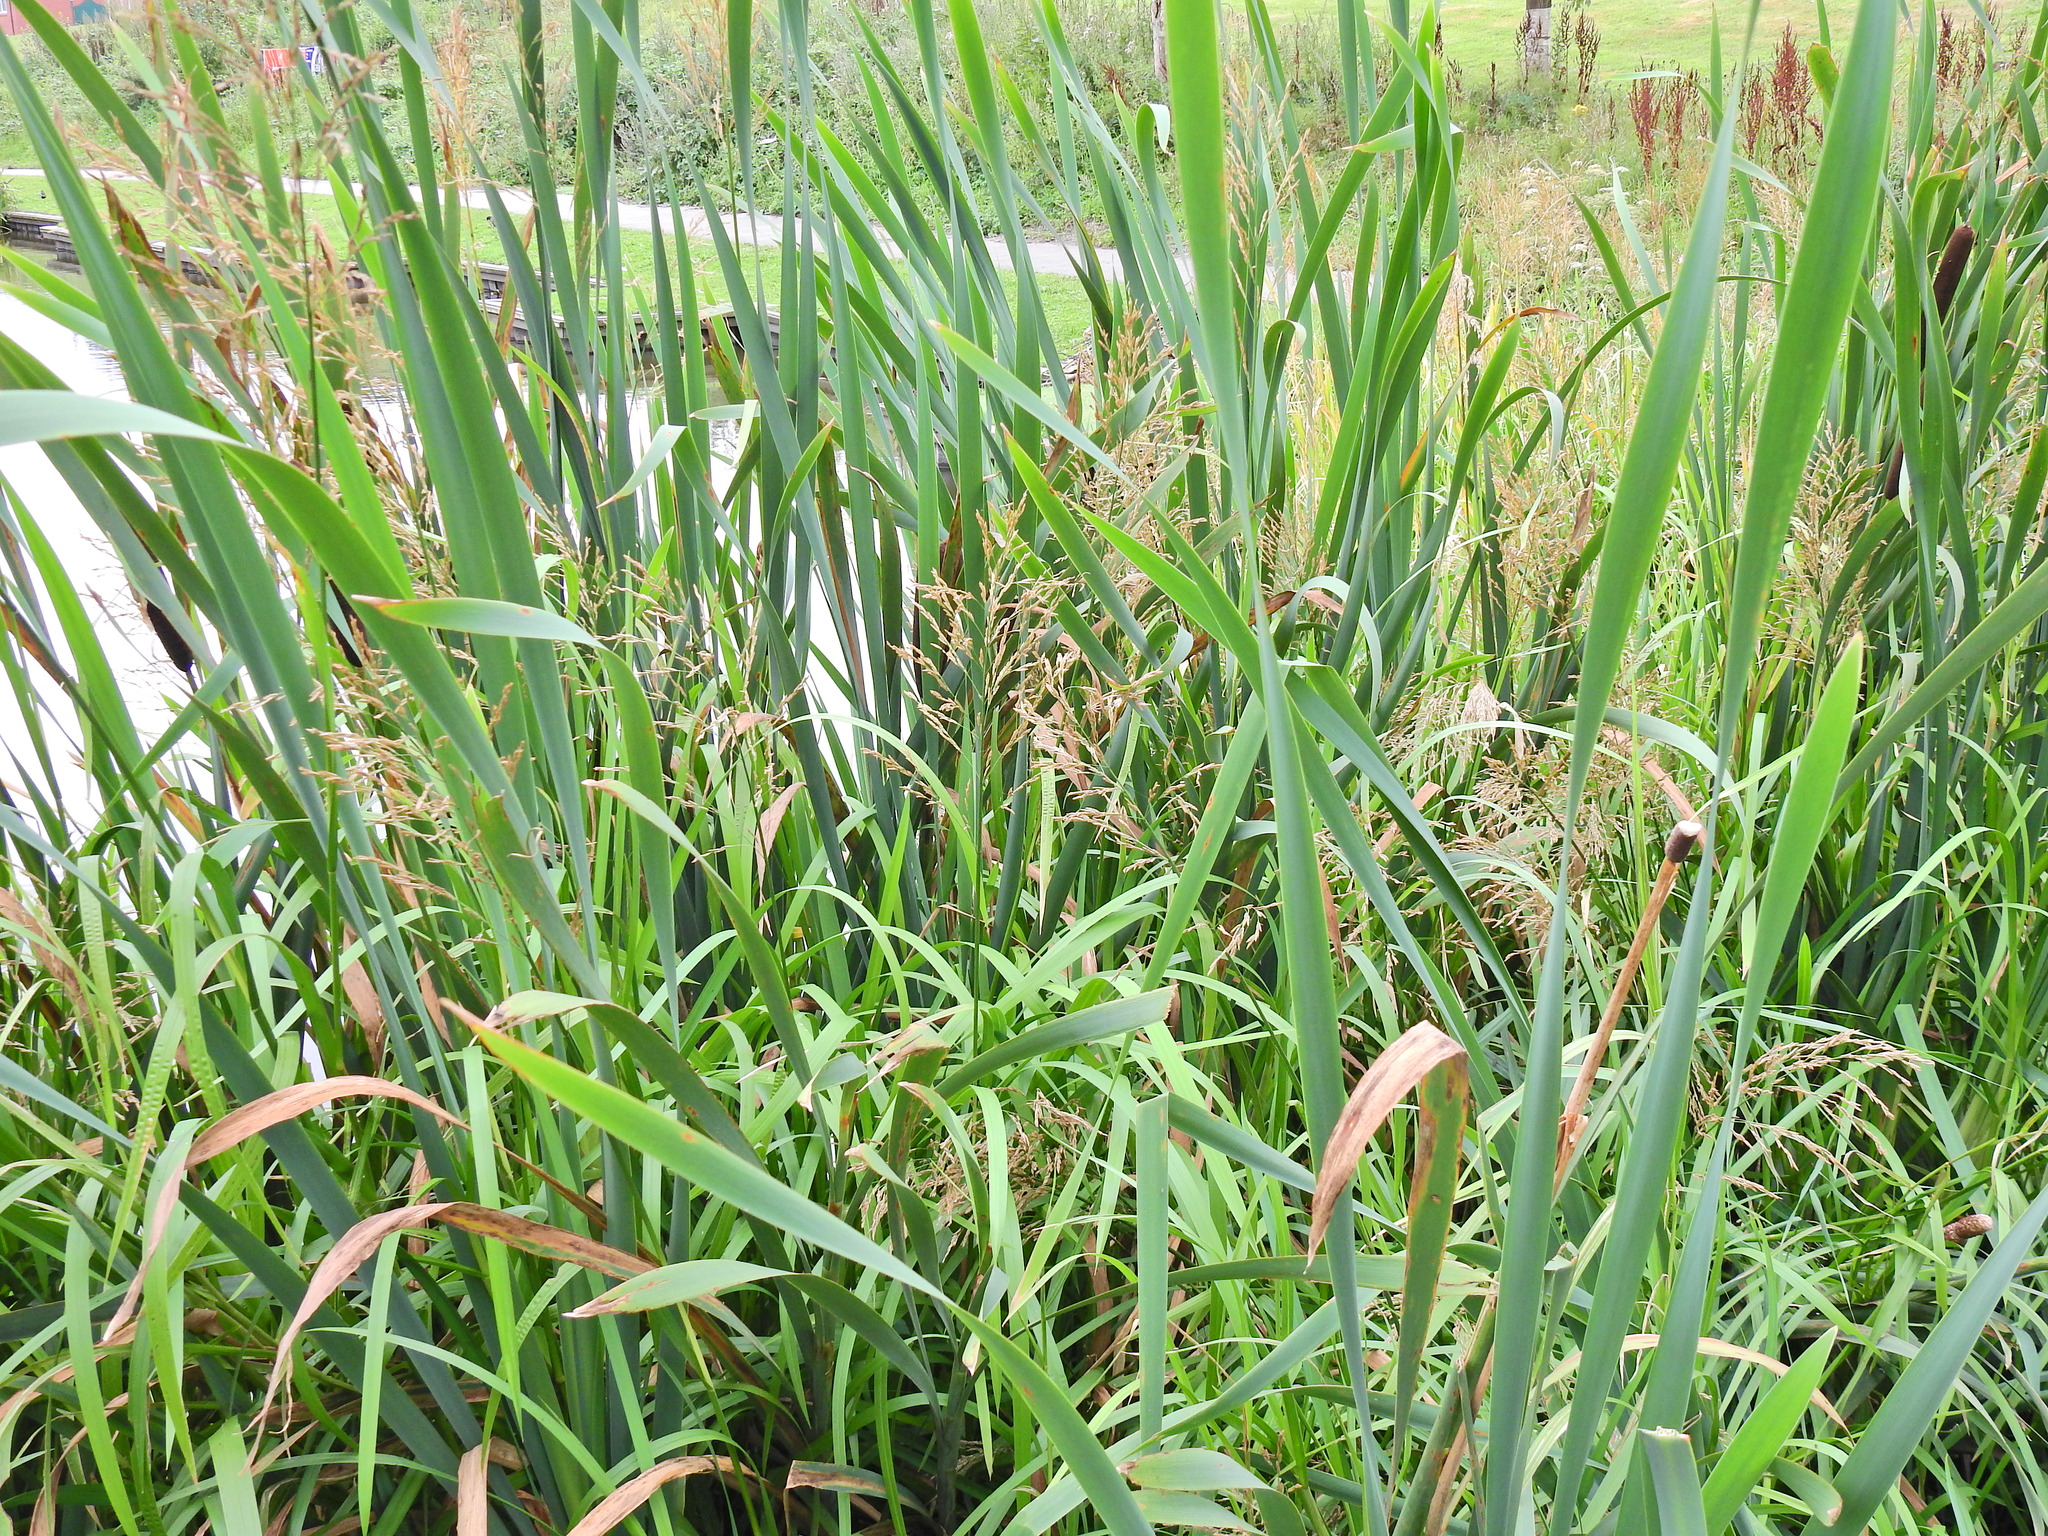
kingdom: Plantae
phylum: Tracheophyta
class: Liliopsida
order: Poales
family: Poaceae
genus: Phragmites
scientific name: Phragmites australis
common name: Common reed
